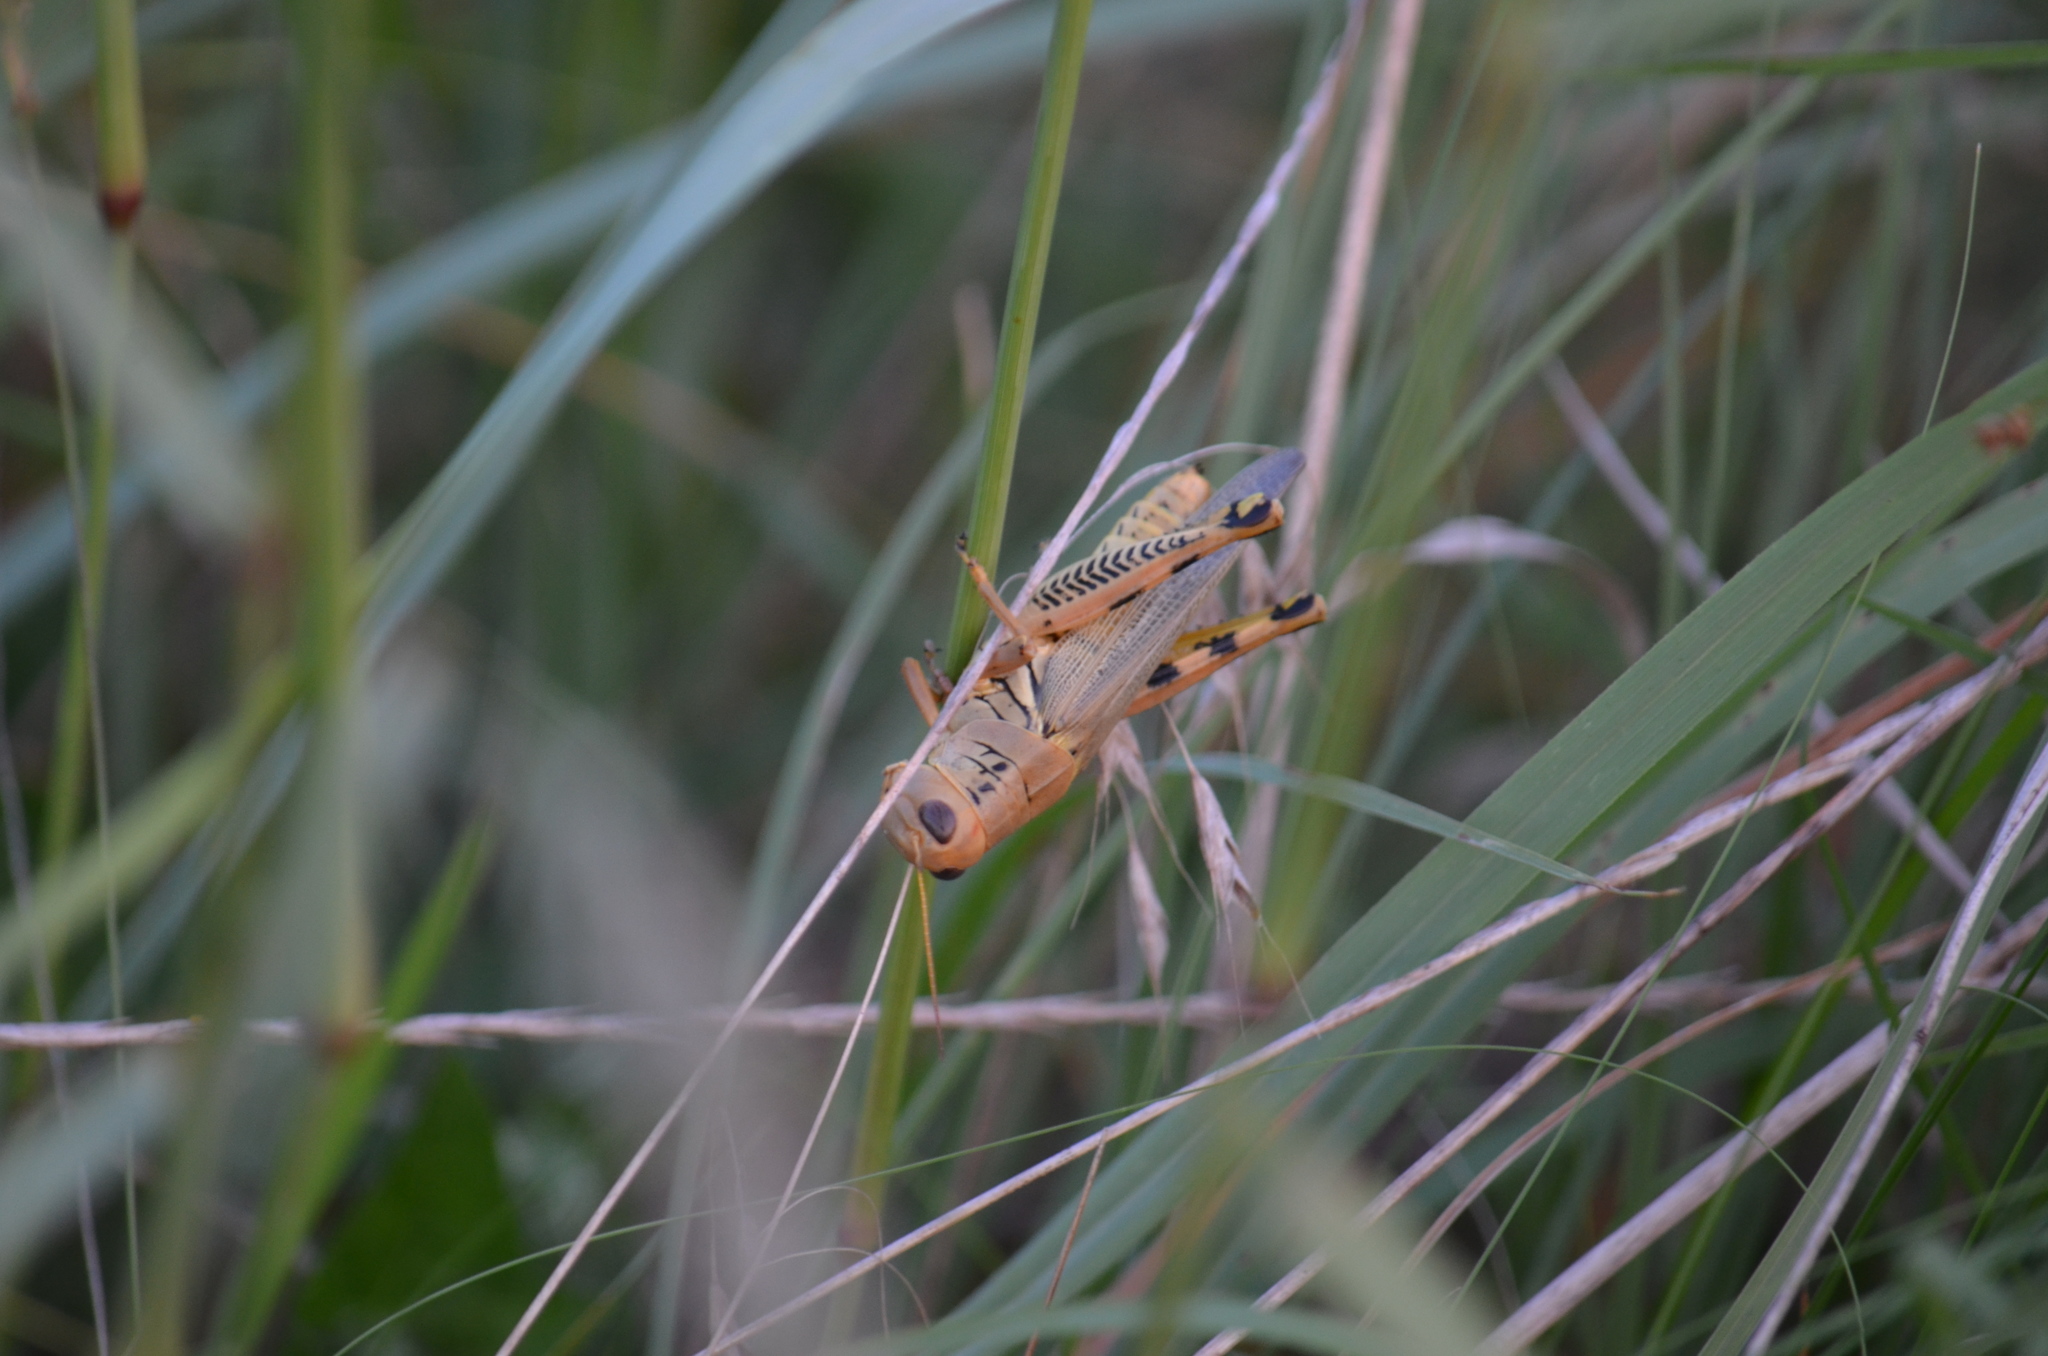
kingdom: Animalia
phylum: Arthropoda
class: Insecta
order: Orthoptera
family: Acrididae
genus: Melanoplus
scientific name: Melanoplus differentialis
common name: Differential grasshopper
